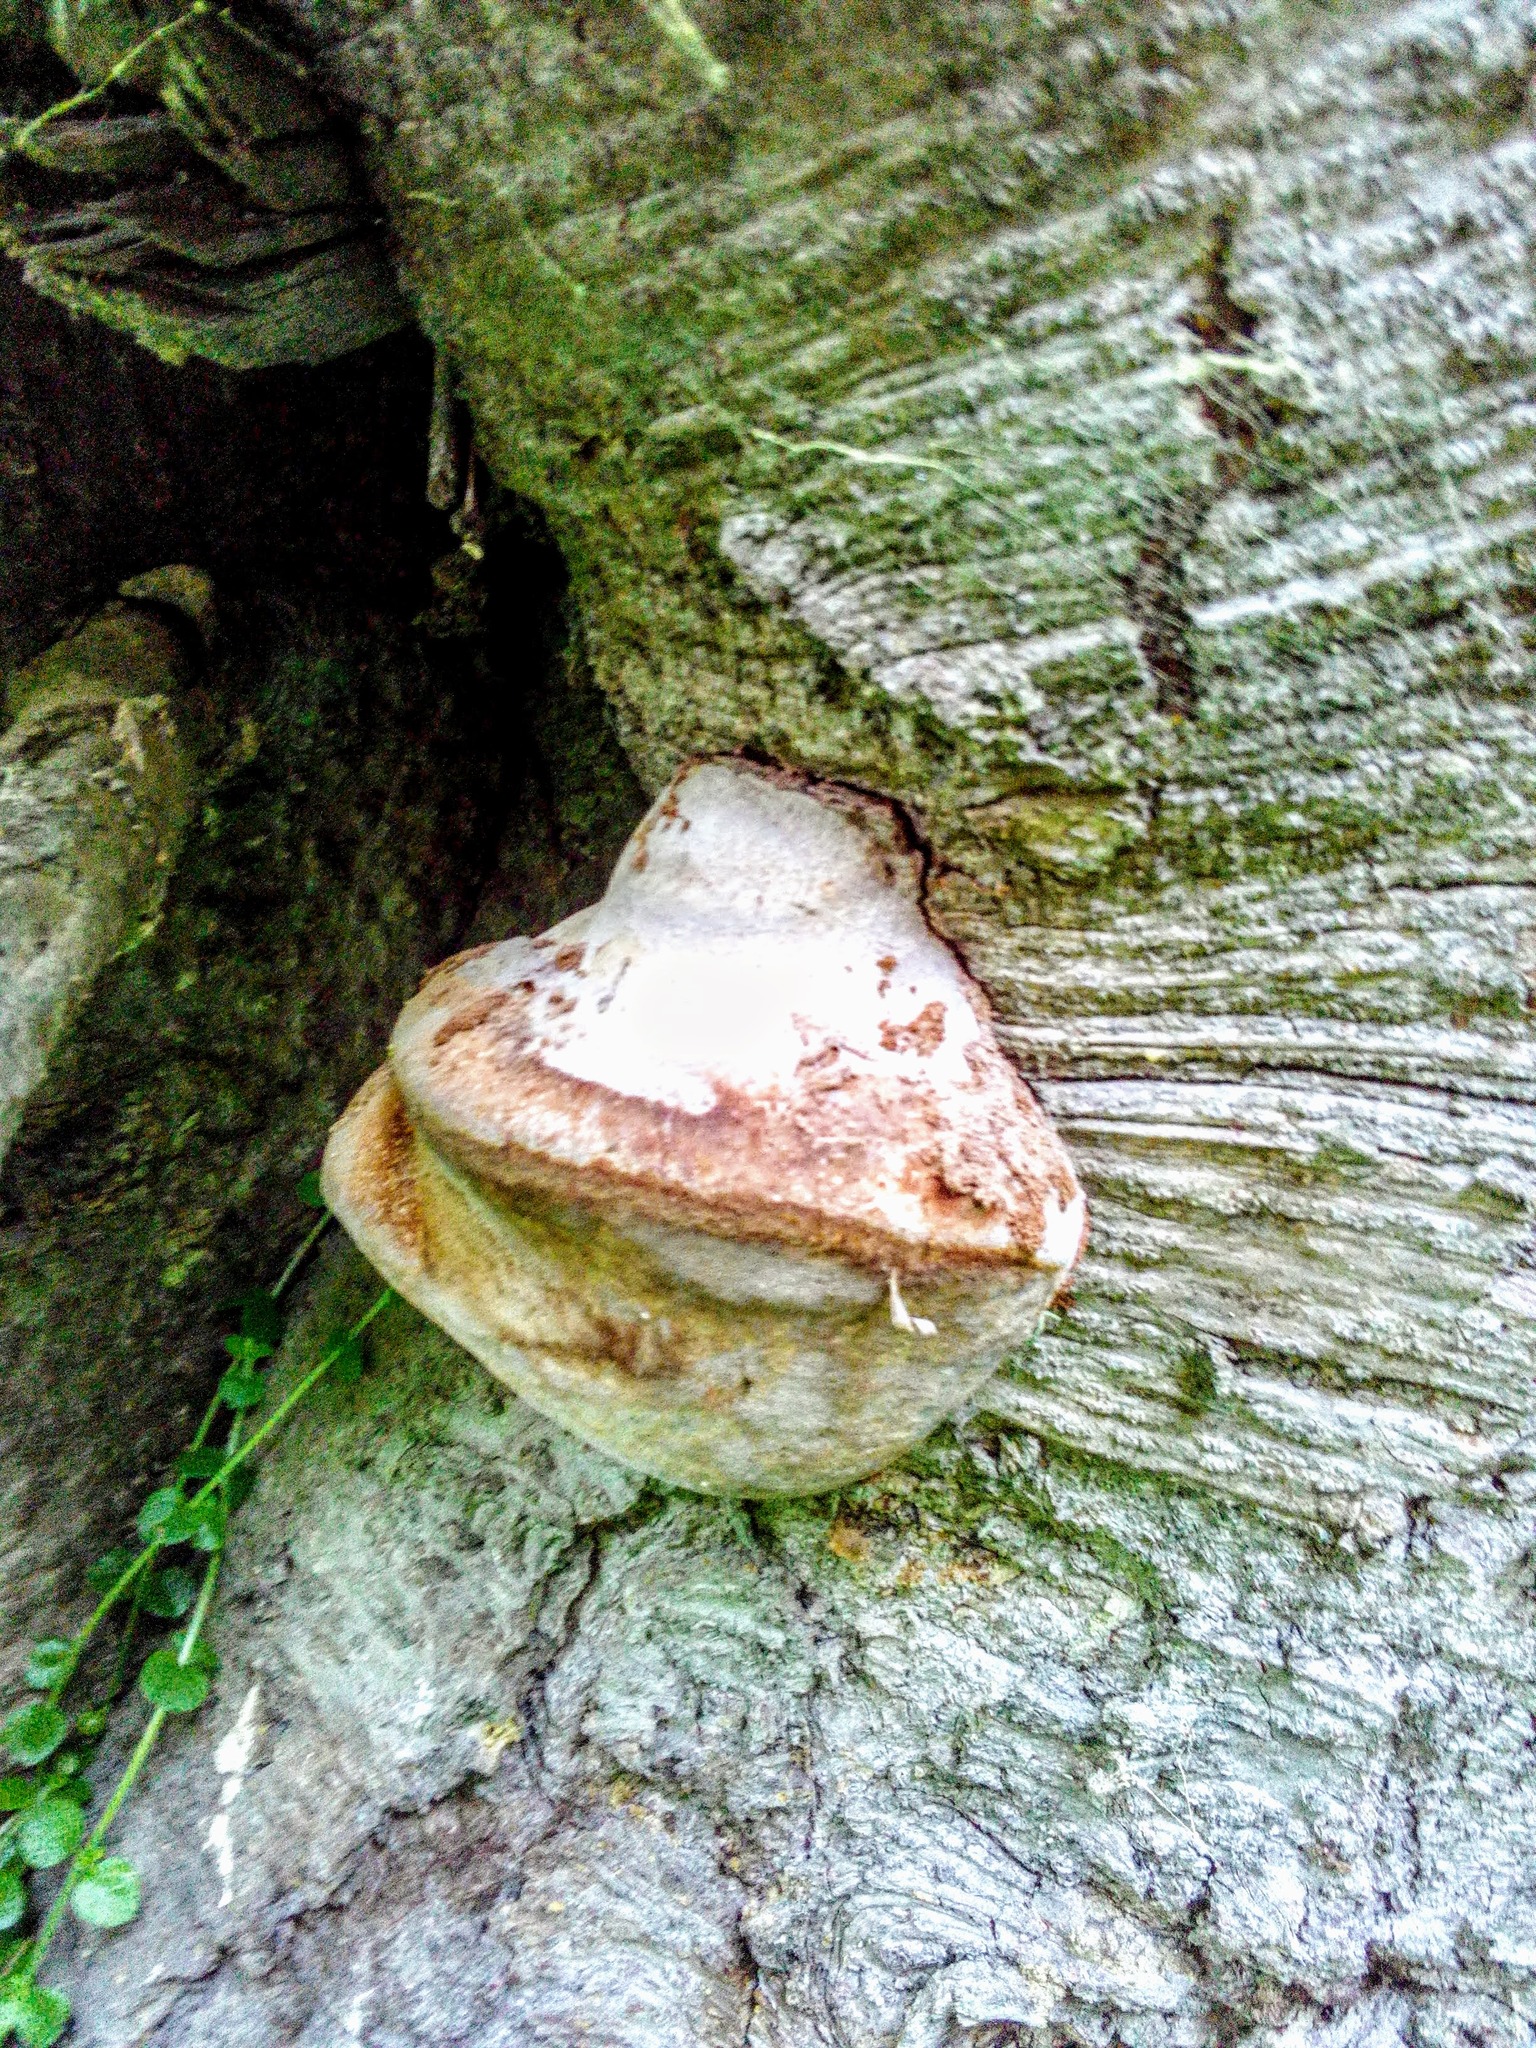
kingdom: Fungi
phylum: Basidiomycota
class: Agaricomycetes
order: Hymenochaetales
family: Hymenochaetaceae
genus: Phellinus
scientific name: Phellinus hartigii
